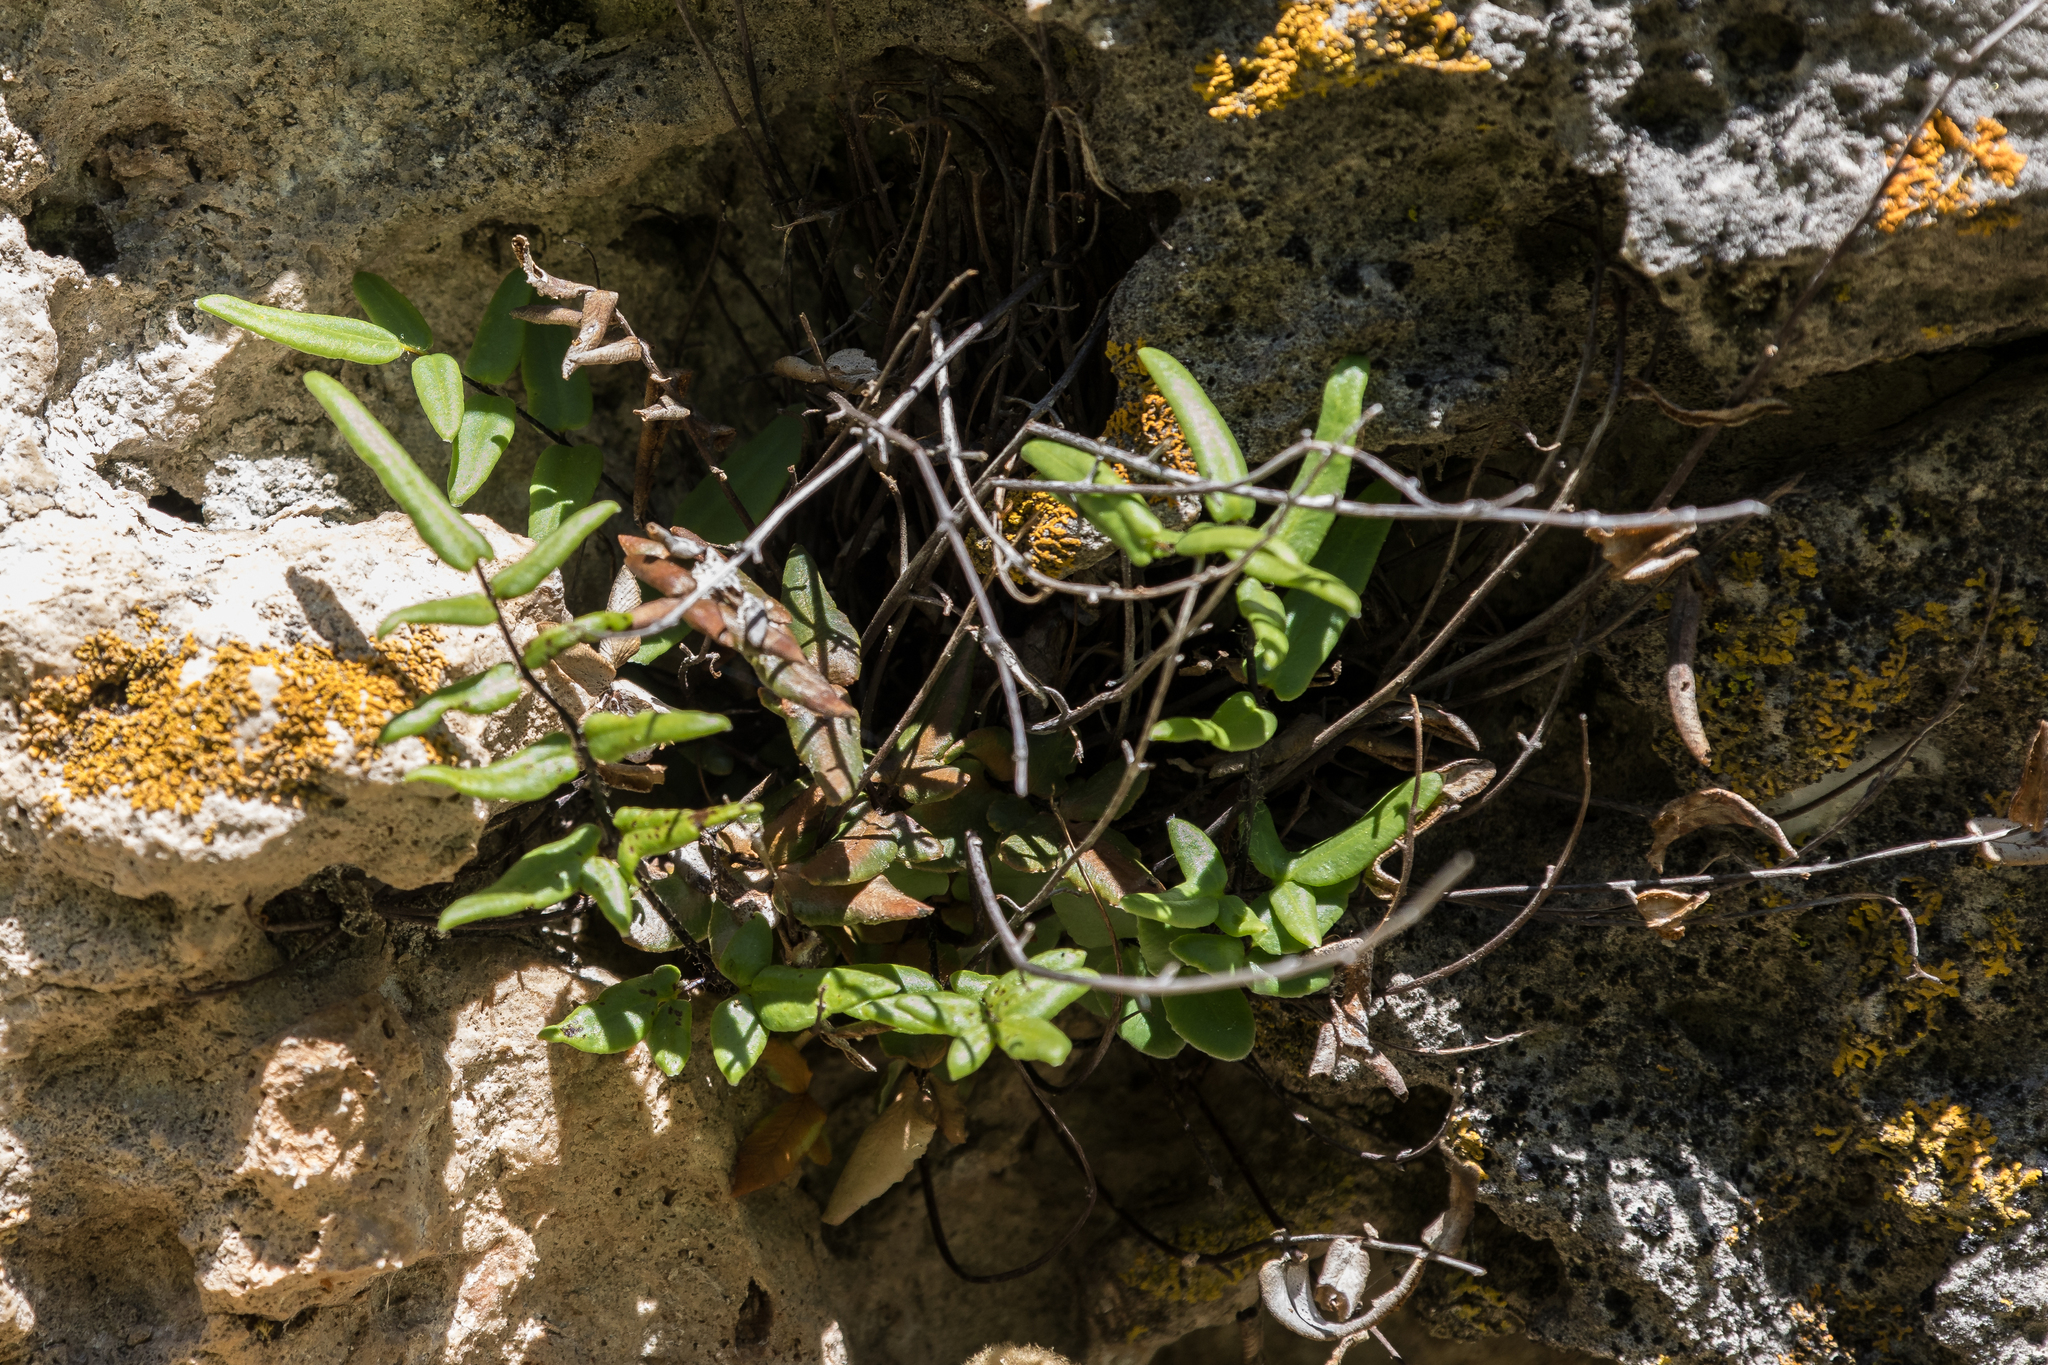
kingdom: Plantae
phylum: Tracheophyta
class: Polypodiopsida
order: Polypodiales
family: Pteridaceae
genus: Pellaea
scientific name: Pellaea gastonyi
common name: Gastony's cliffbrake
